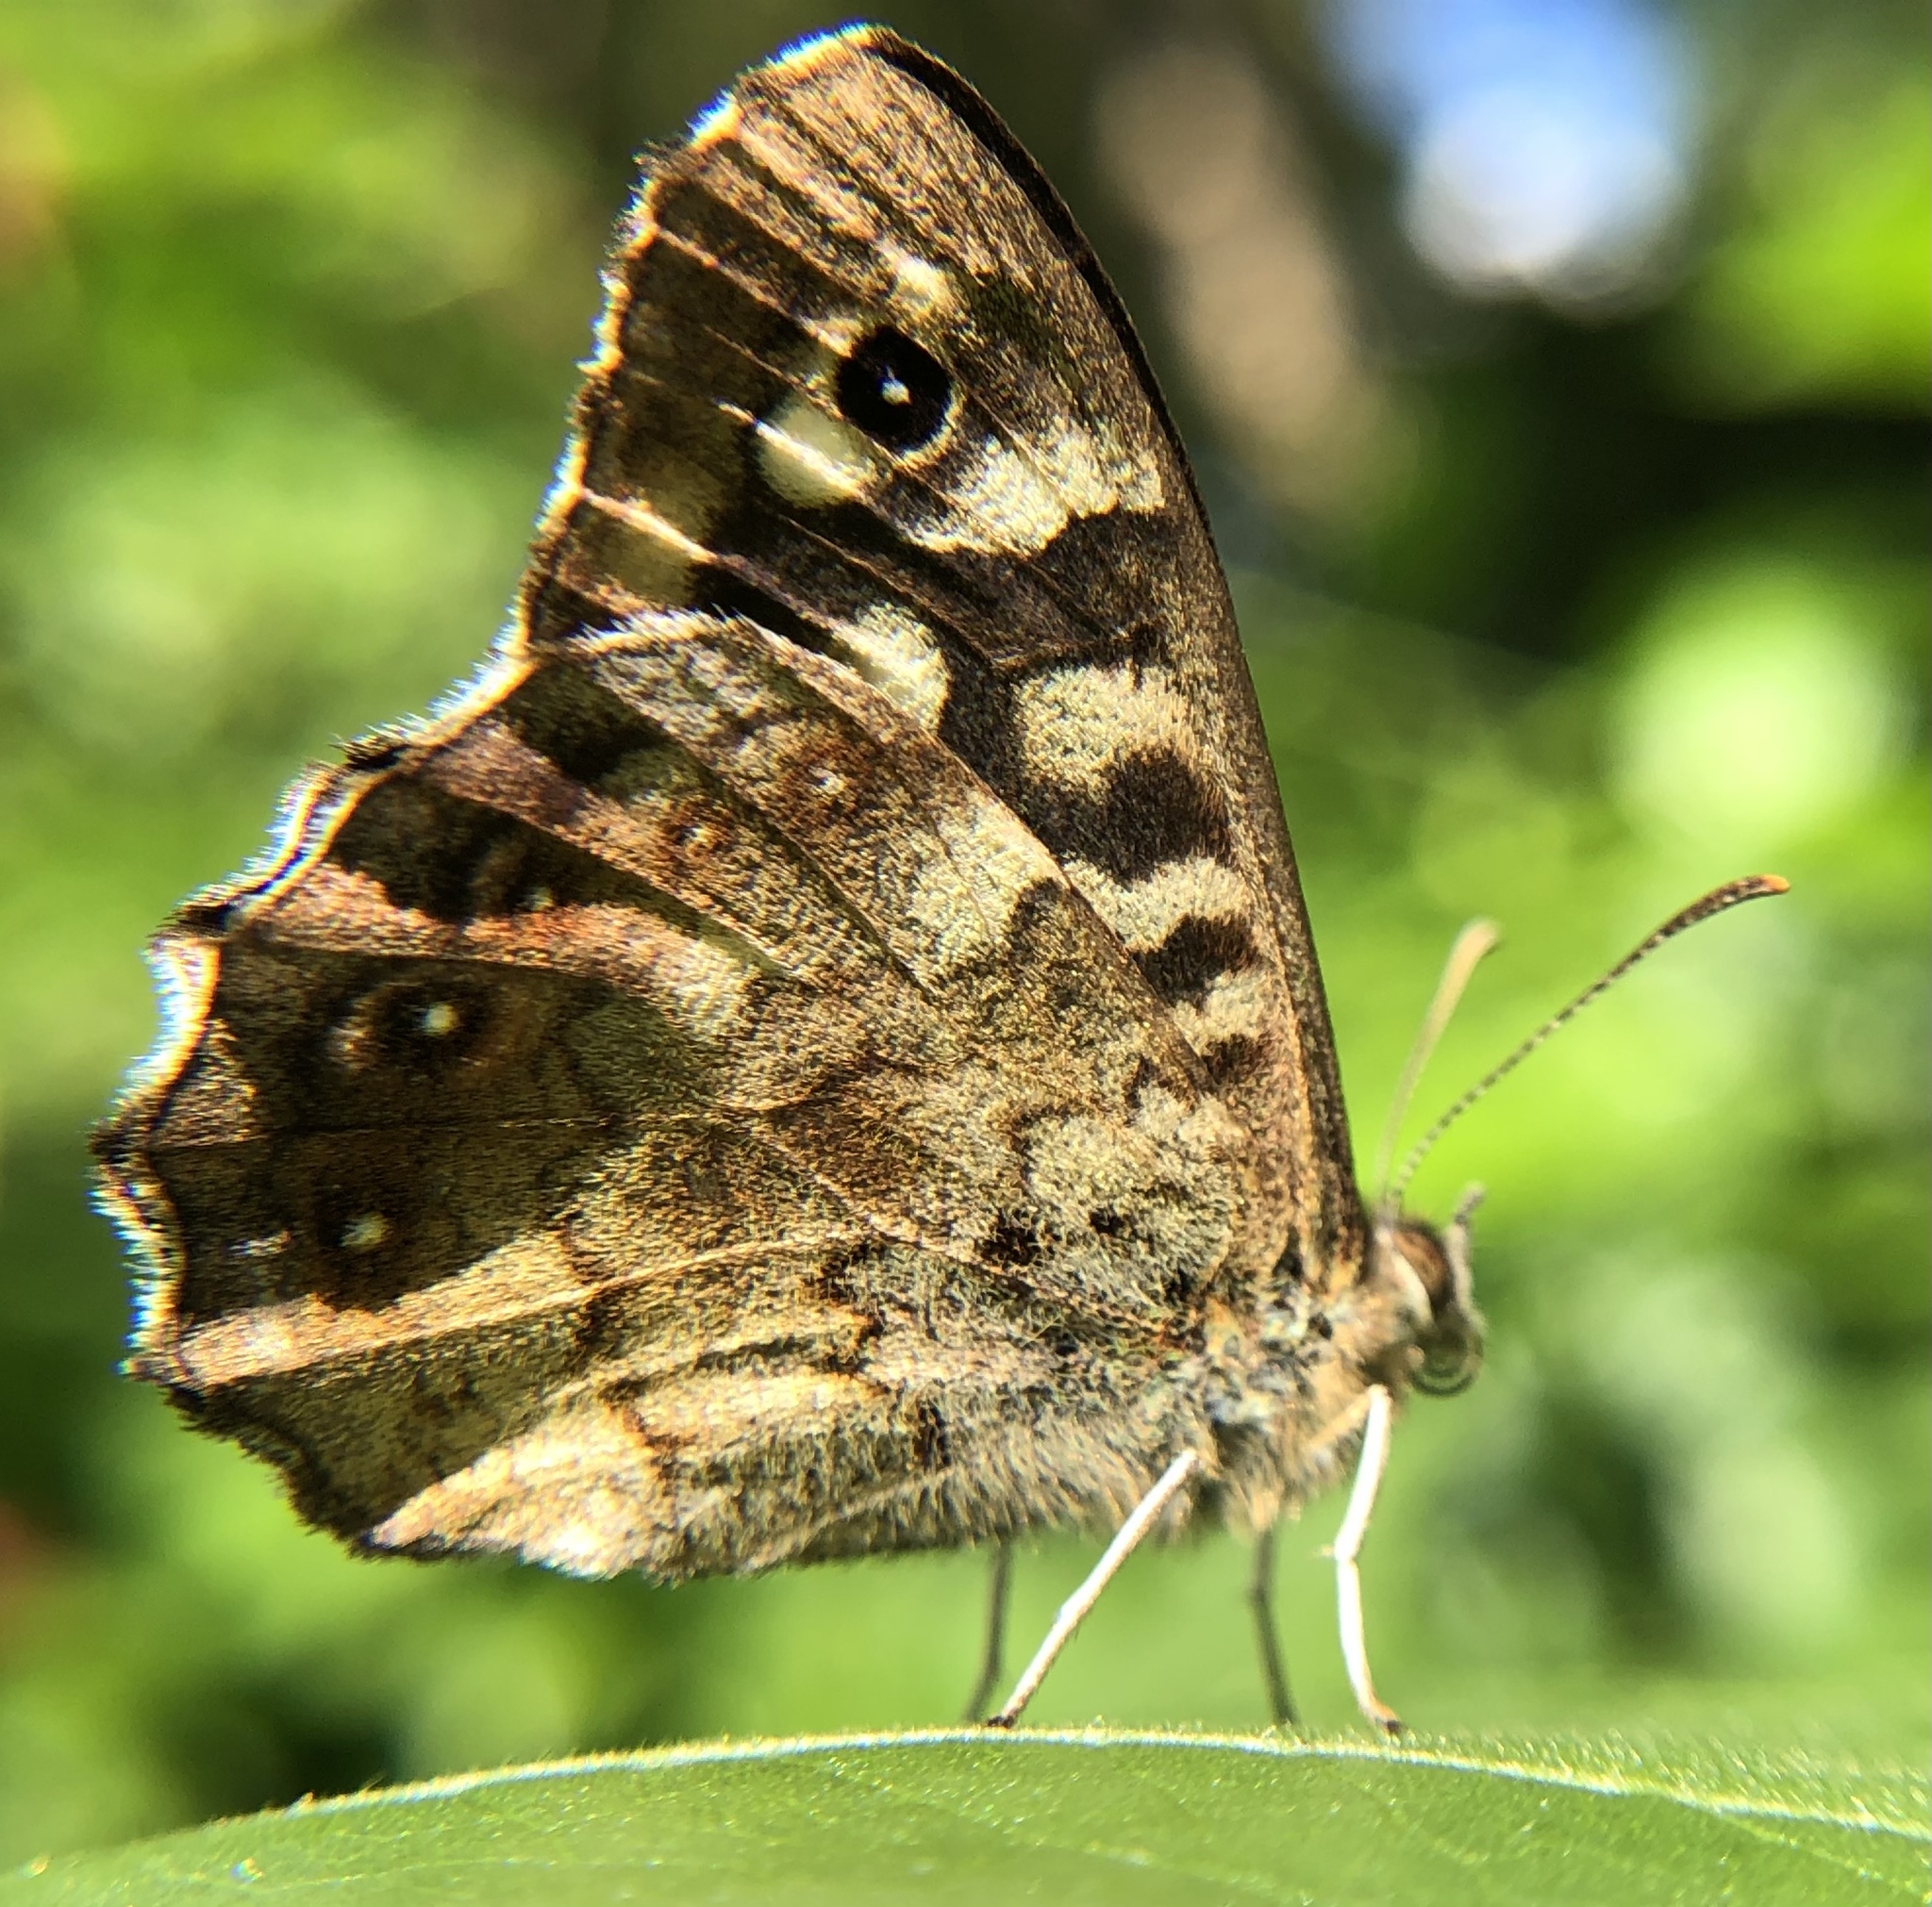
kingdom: Animalia
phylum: Arthropoda
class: Insecta
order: Lepidoptera
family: Nymphalidae
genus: Pararge
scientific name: Pararge aegeria
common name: Speckled wood
